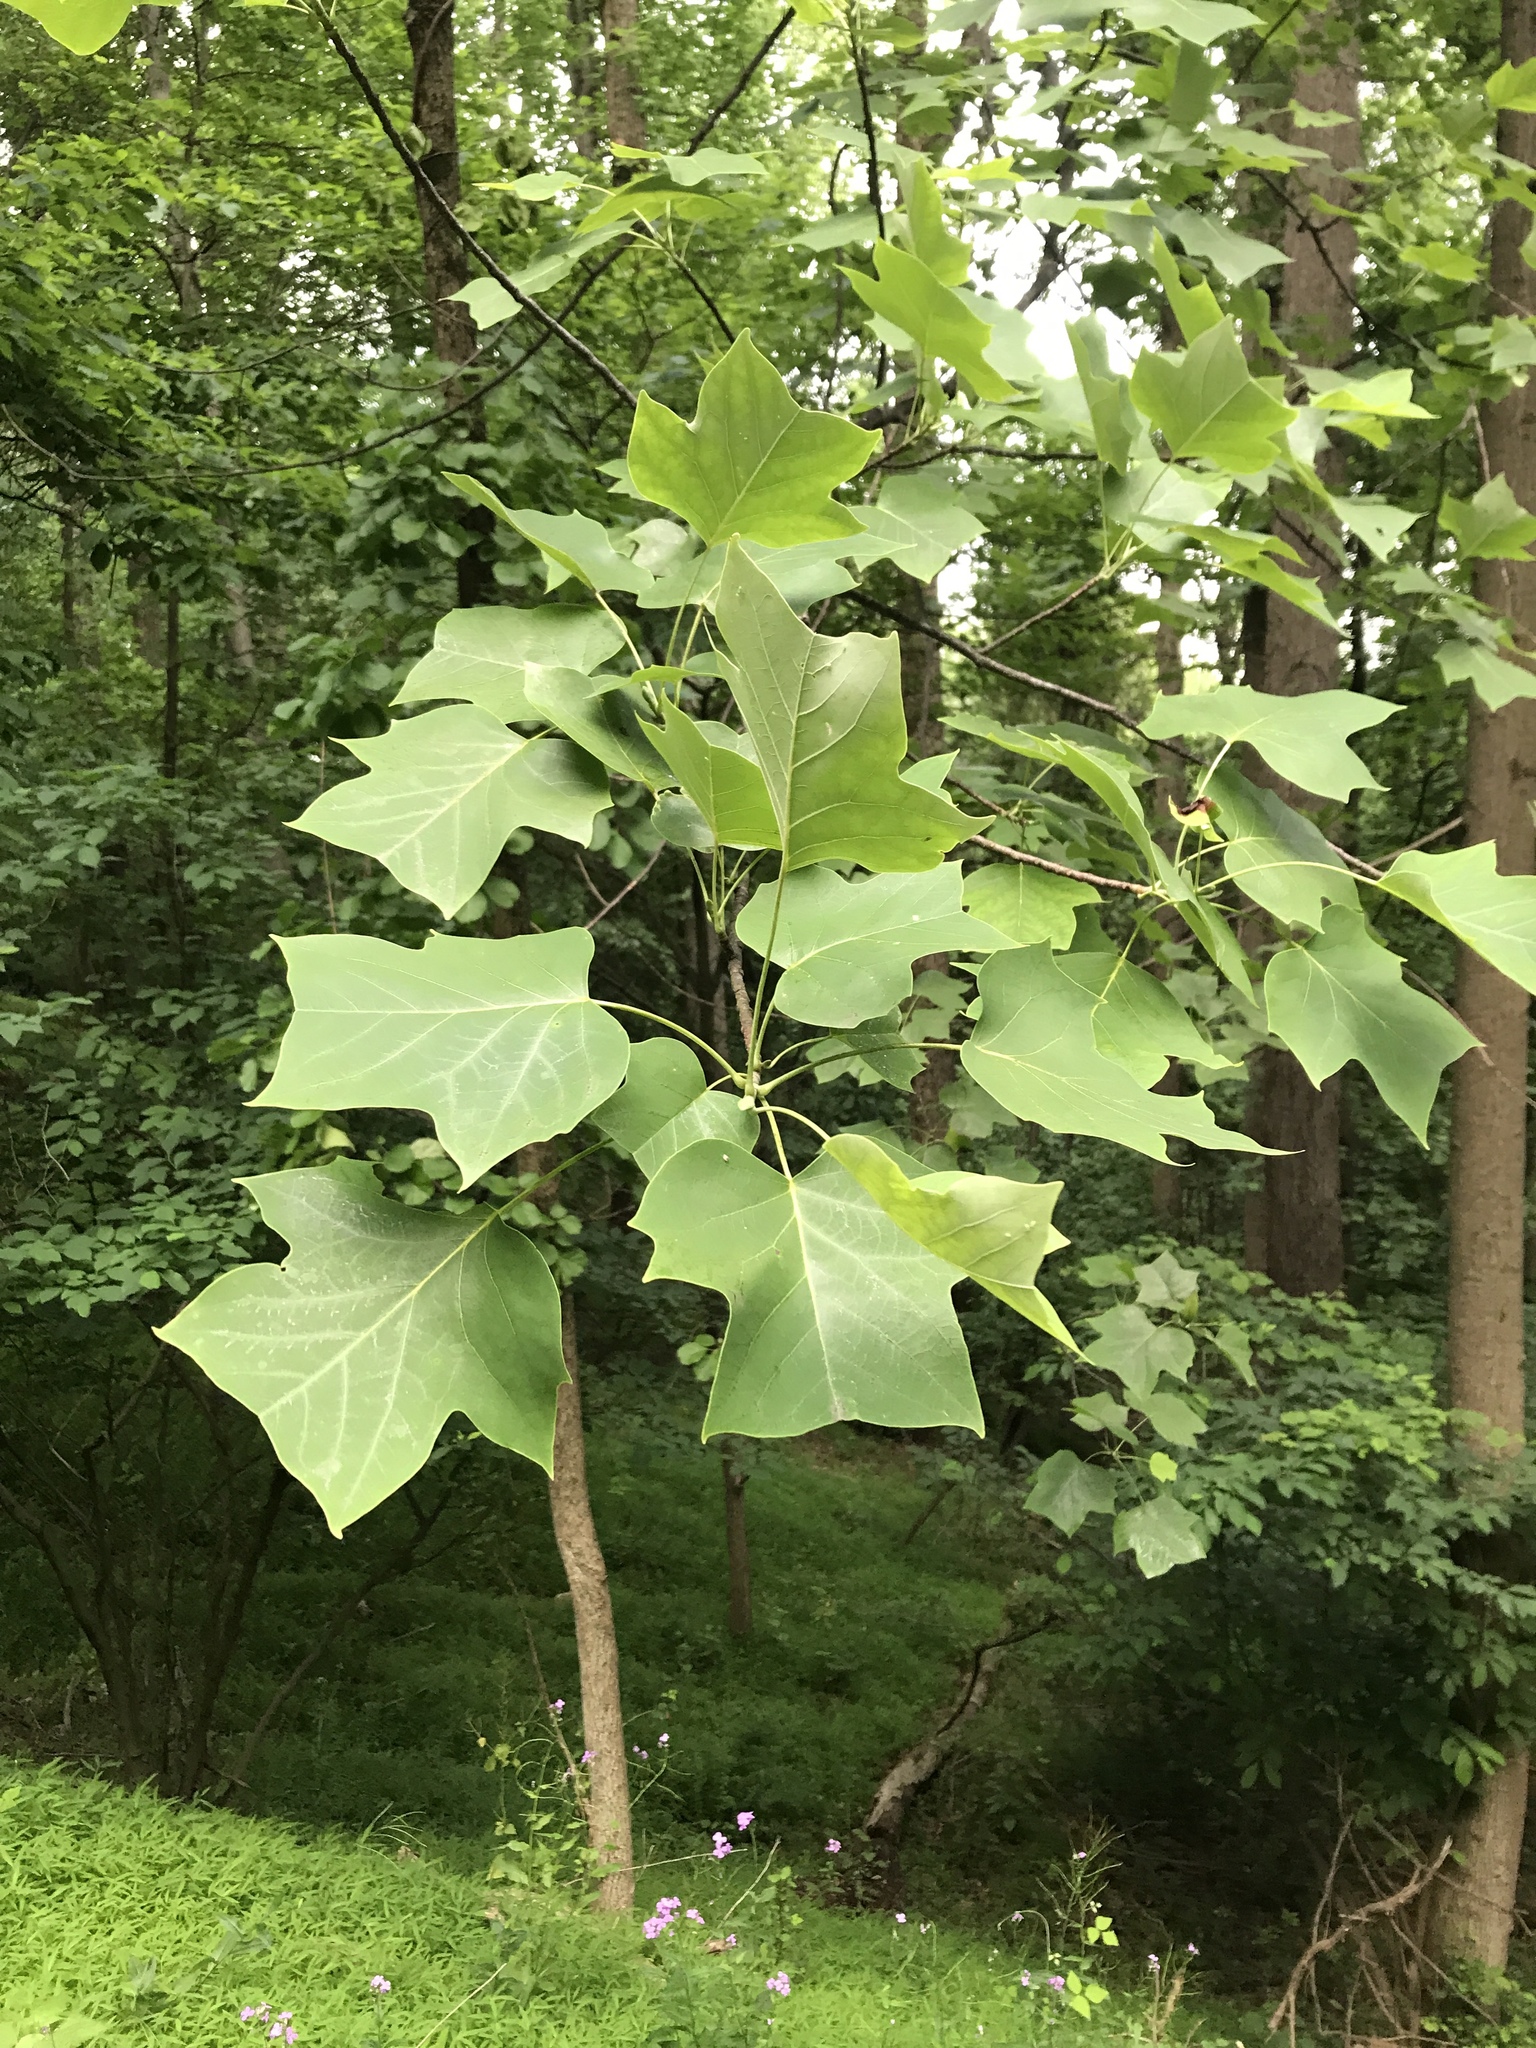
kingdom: Plantae
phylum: Tracheophyta
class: Magnoliopsida
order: Magnoliales
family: Magnoliaceae
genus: Liriodendron
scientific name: Liriodendron tulipifera
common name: Tulip tree
